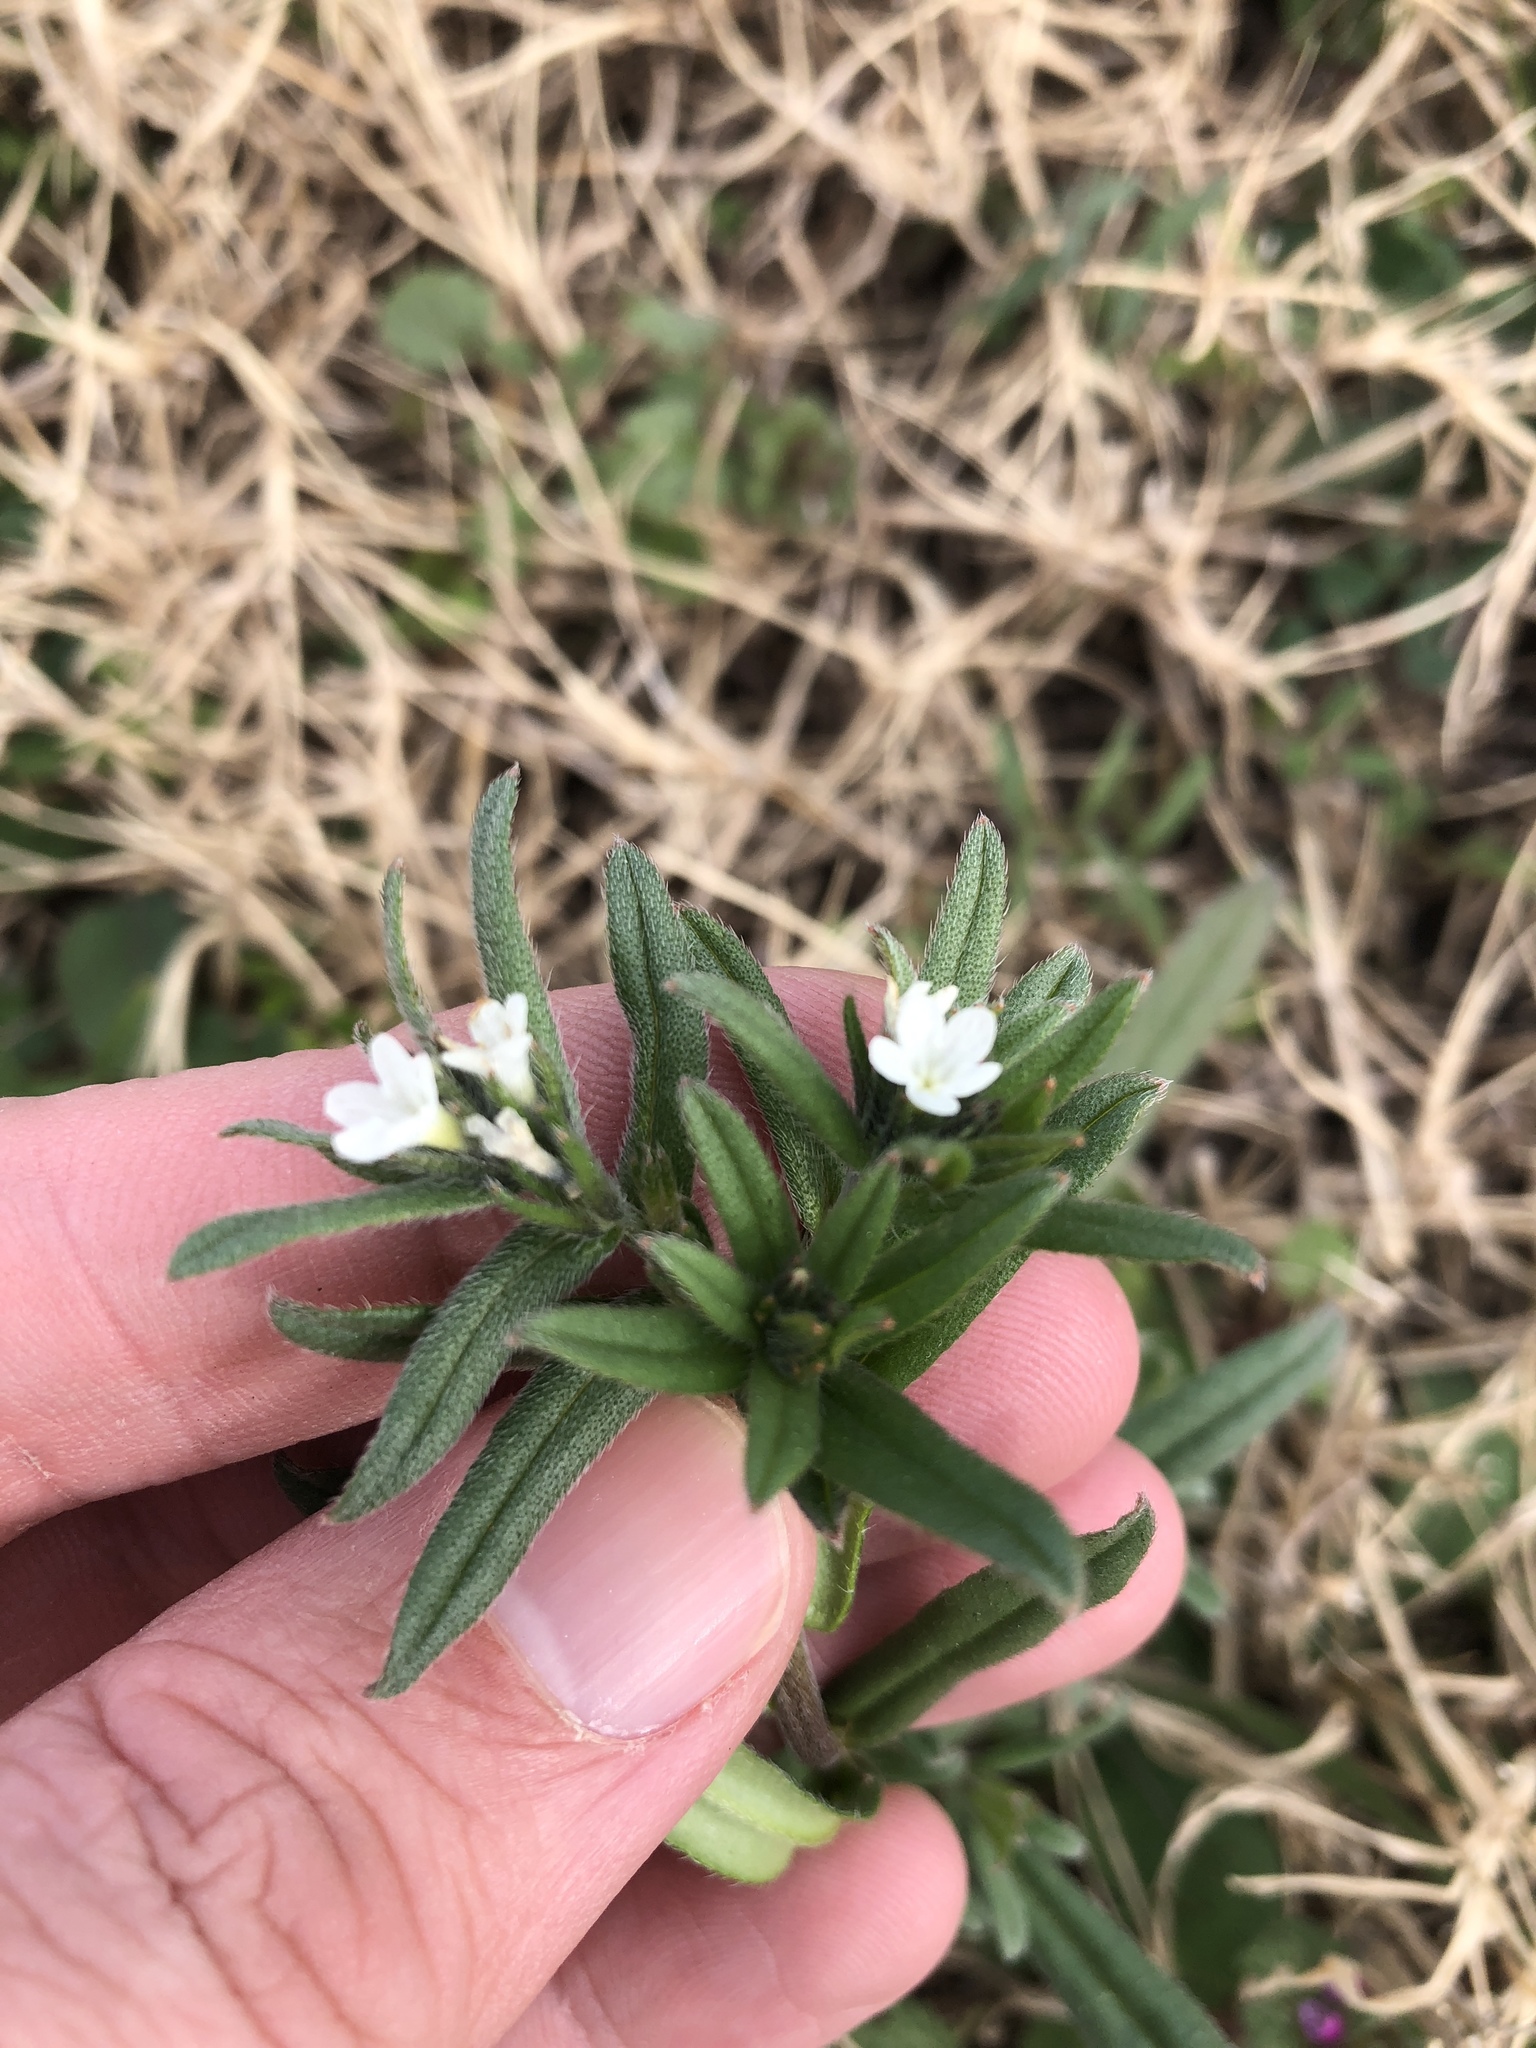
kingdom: Plantae
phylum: Tracheophyta
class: Magnoliopsida
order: Boraginales
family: Boraginaceae
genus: Buglossoides
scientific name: Buglossoides arvensis
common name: Corn gromwell
